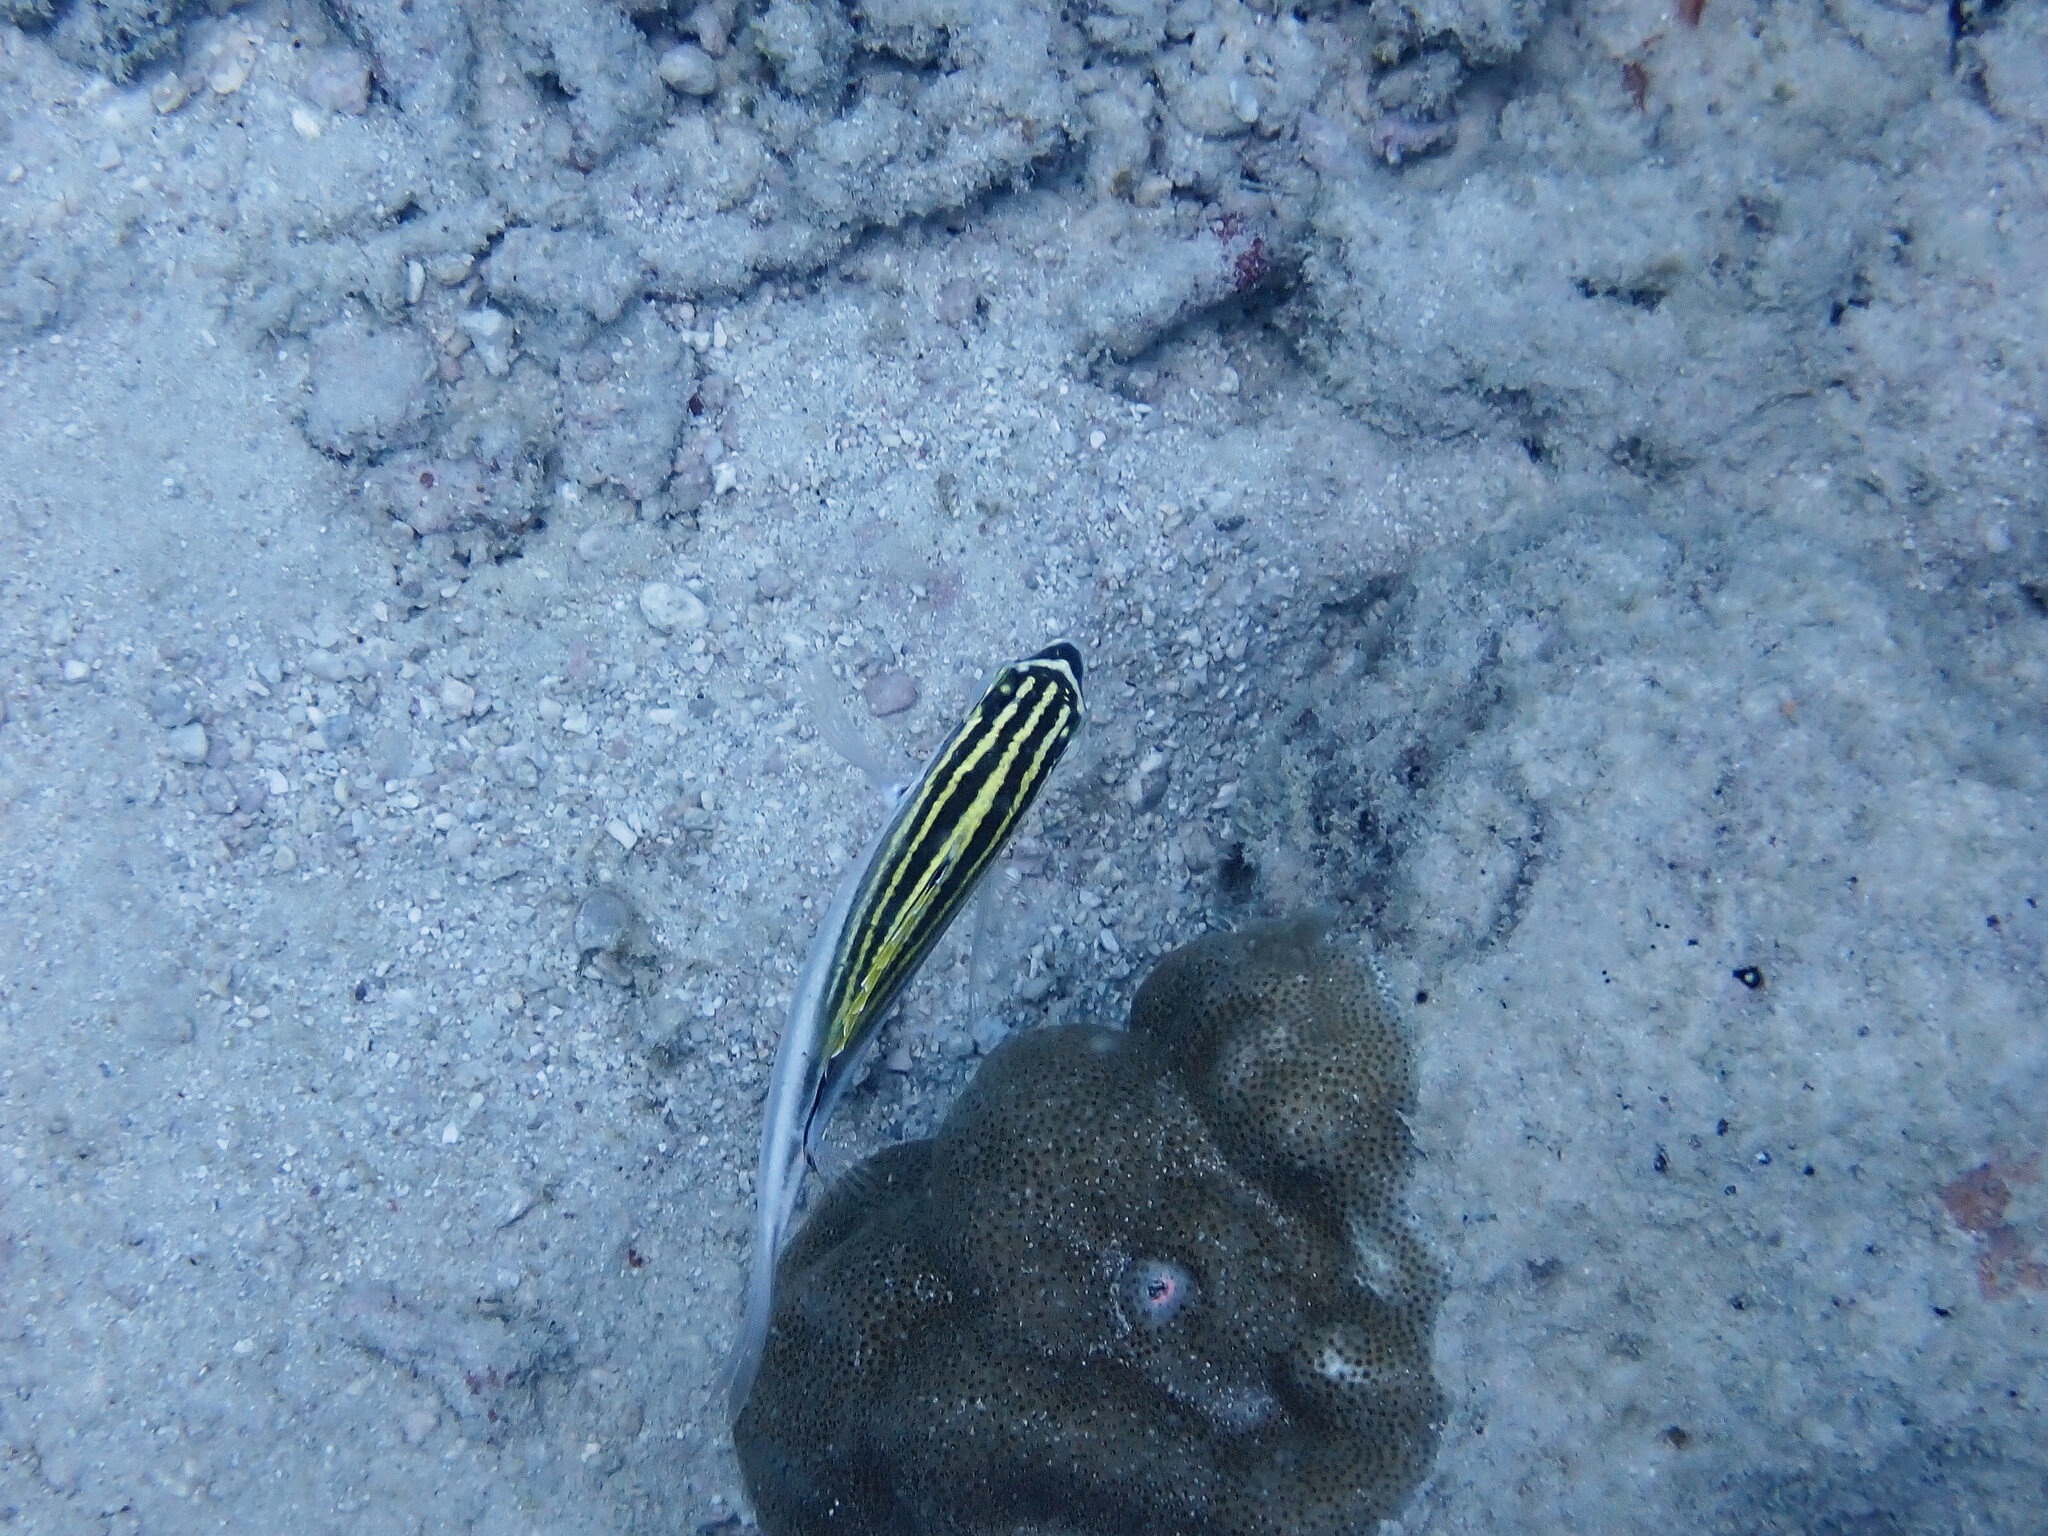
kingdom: Animalia
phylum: Chordata
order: Perciformes
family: Nemipteridae
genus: Scolopsis
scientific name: Scolopsis bilineata
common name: Two-lined monocle bream
